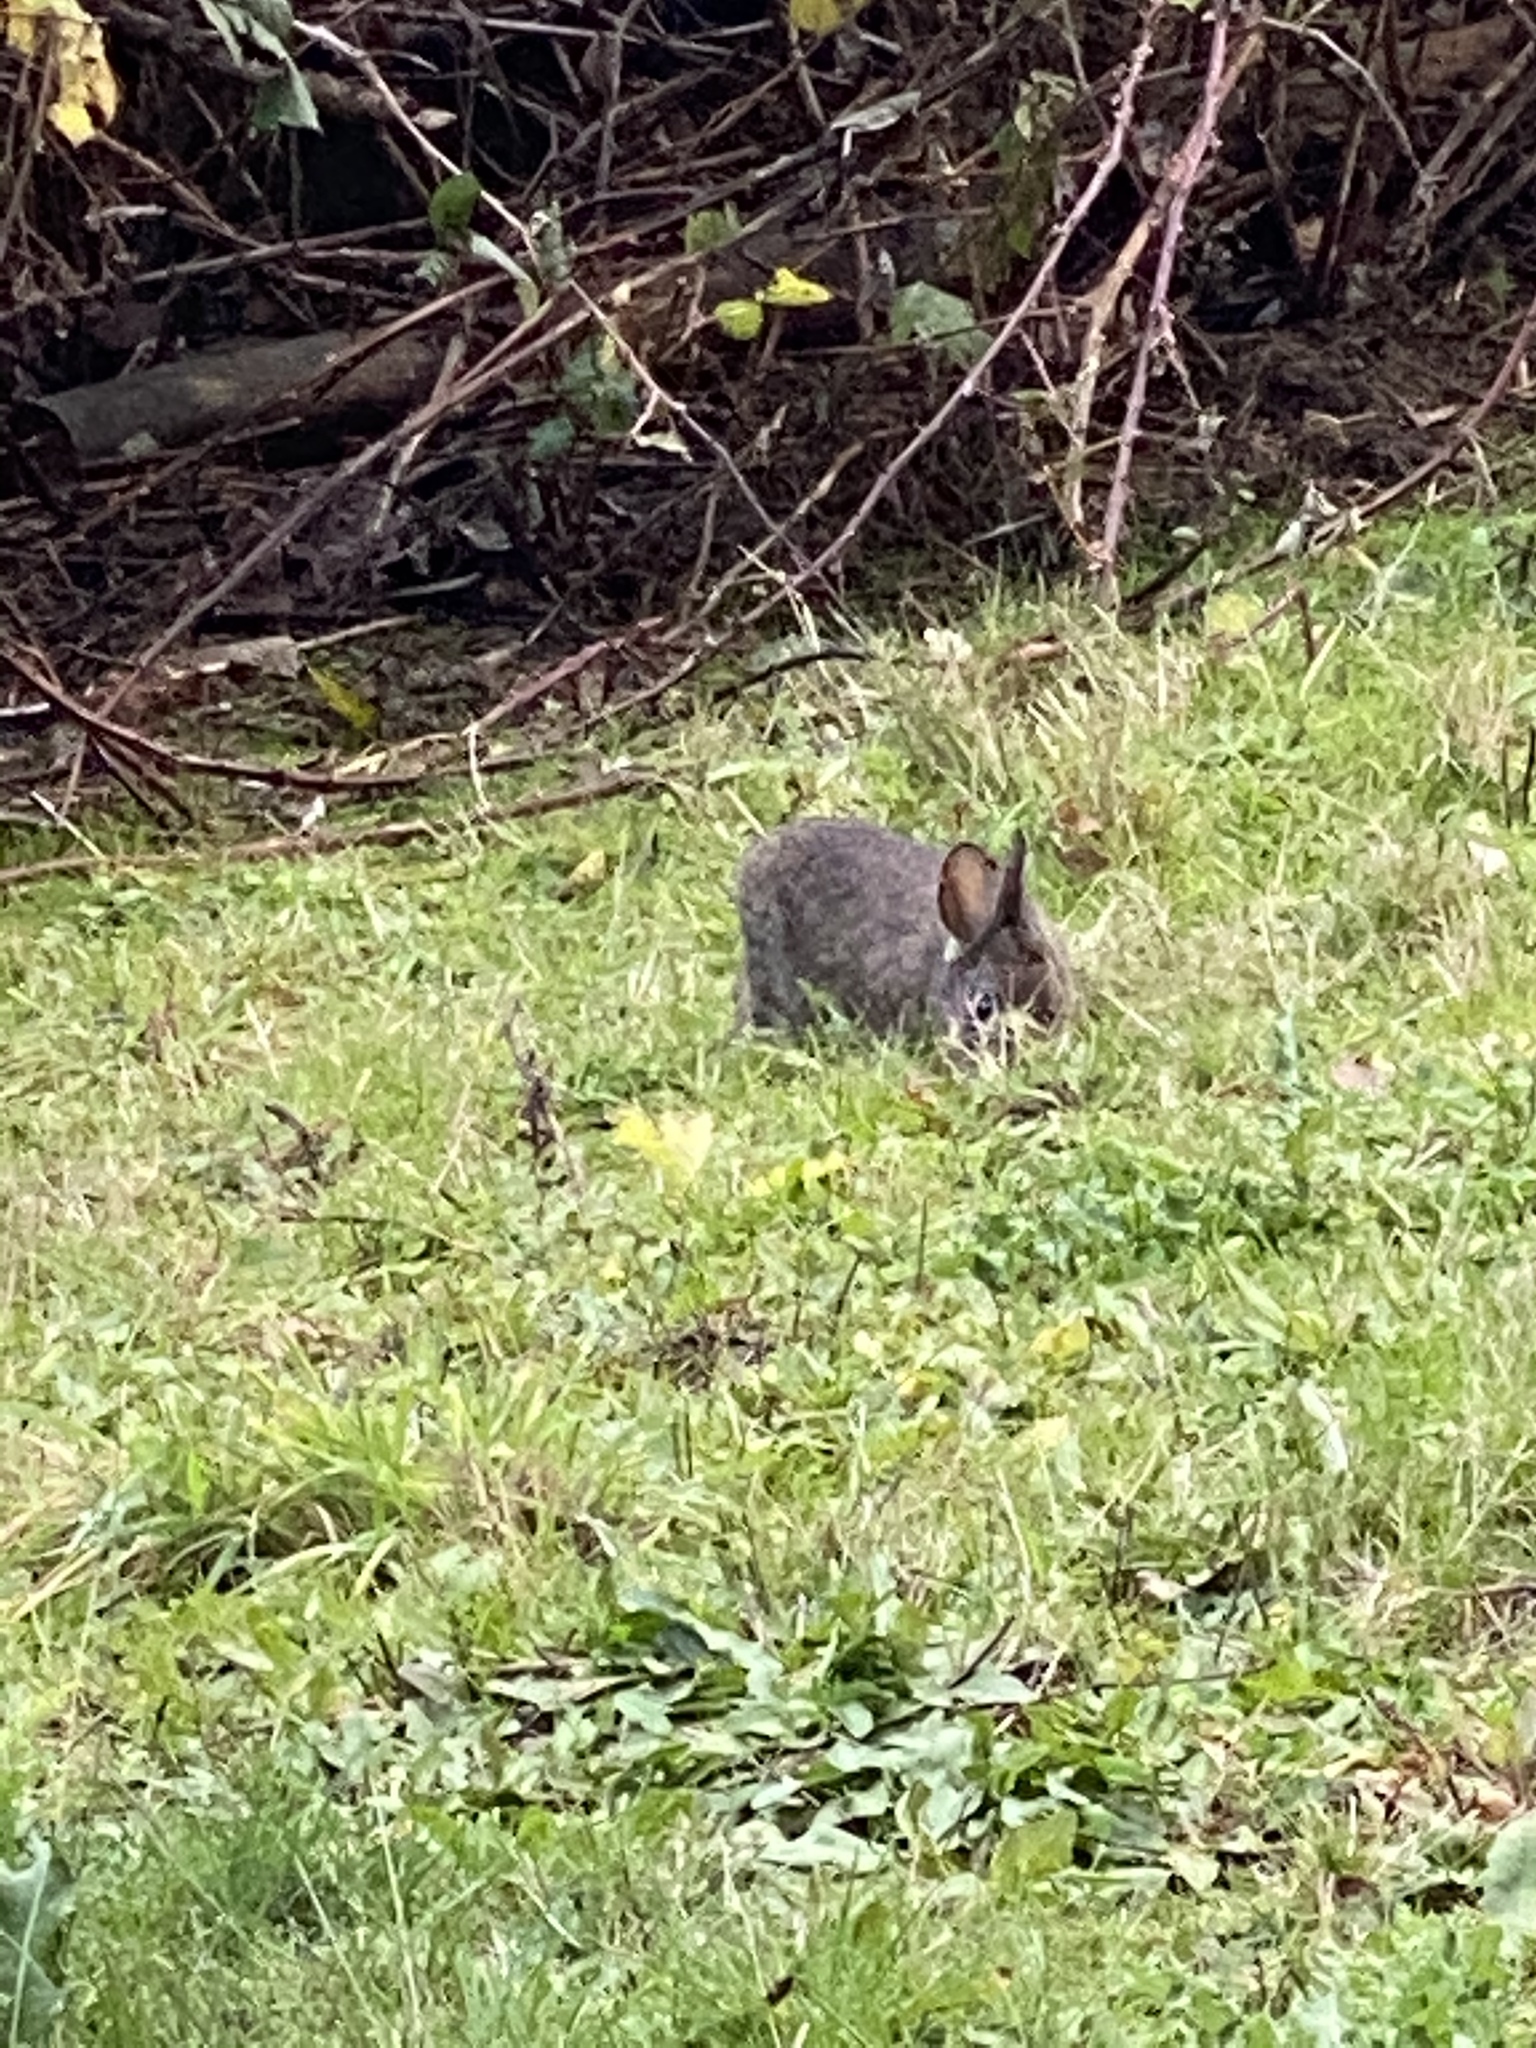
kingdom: Animalia
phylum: Chordata
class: Mammalia
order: Lagomorpha
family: Leporidae
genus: Sylvilagus
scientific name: Sylvilagus bachmani
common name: Brush rabbit
